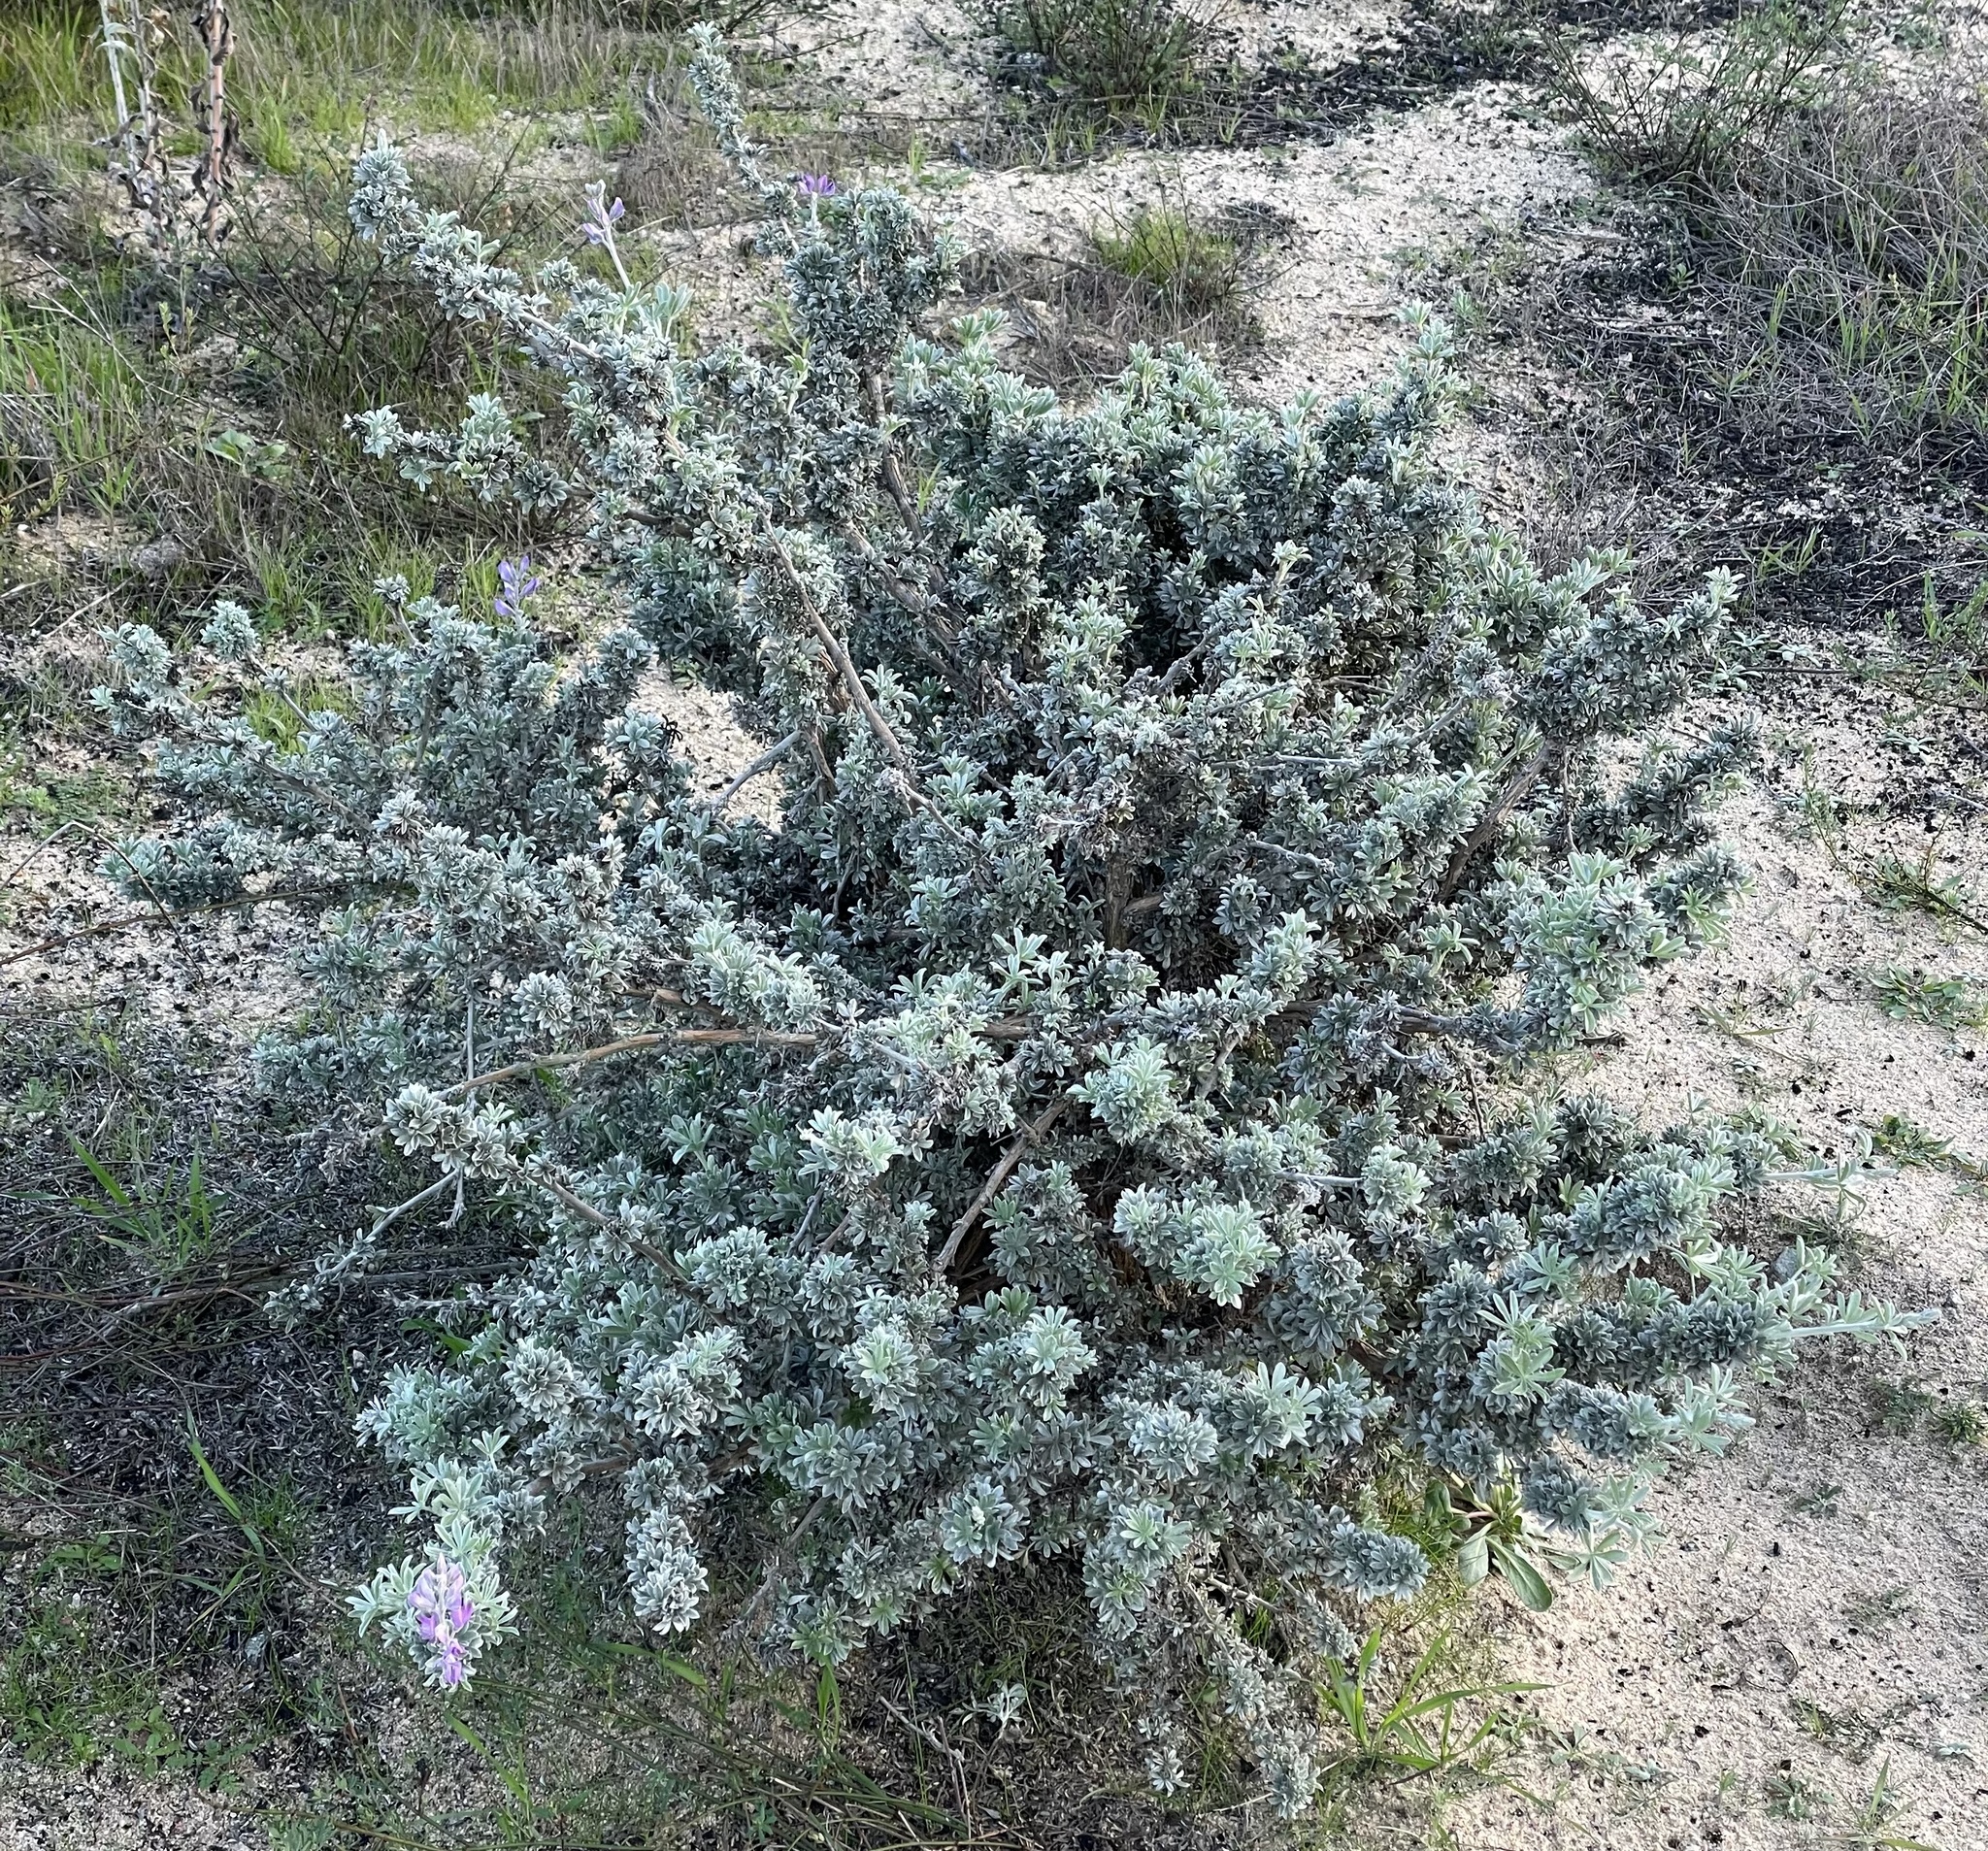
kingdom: Animalia
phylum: Arthropoda
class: Insecta
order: Diptera
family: Cecidomyiidae
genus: Dasineura
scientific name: Dasineura lupinorum
